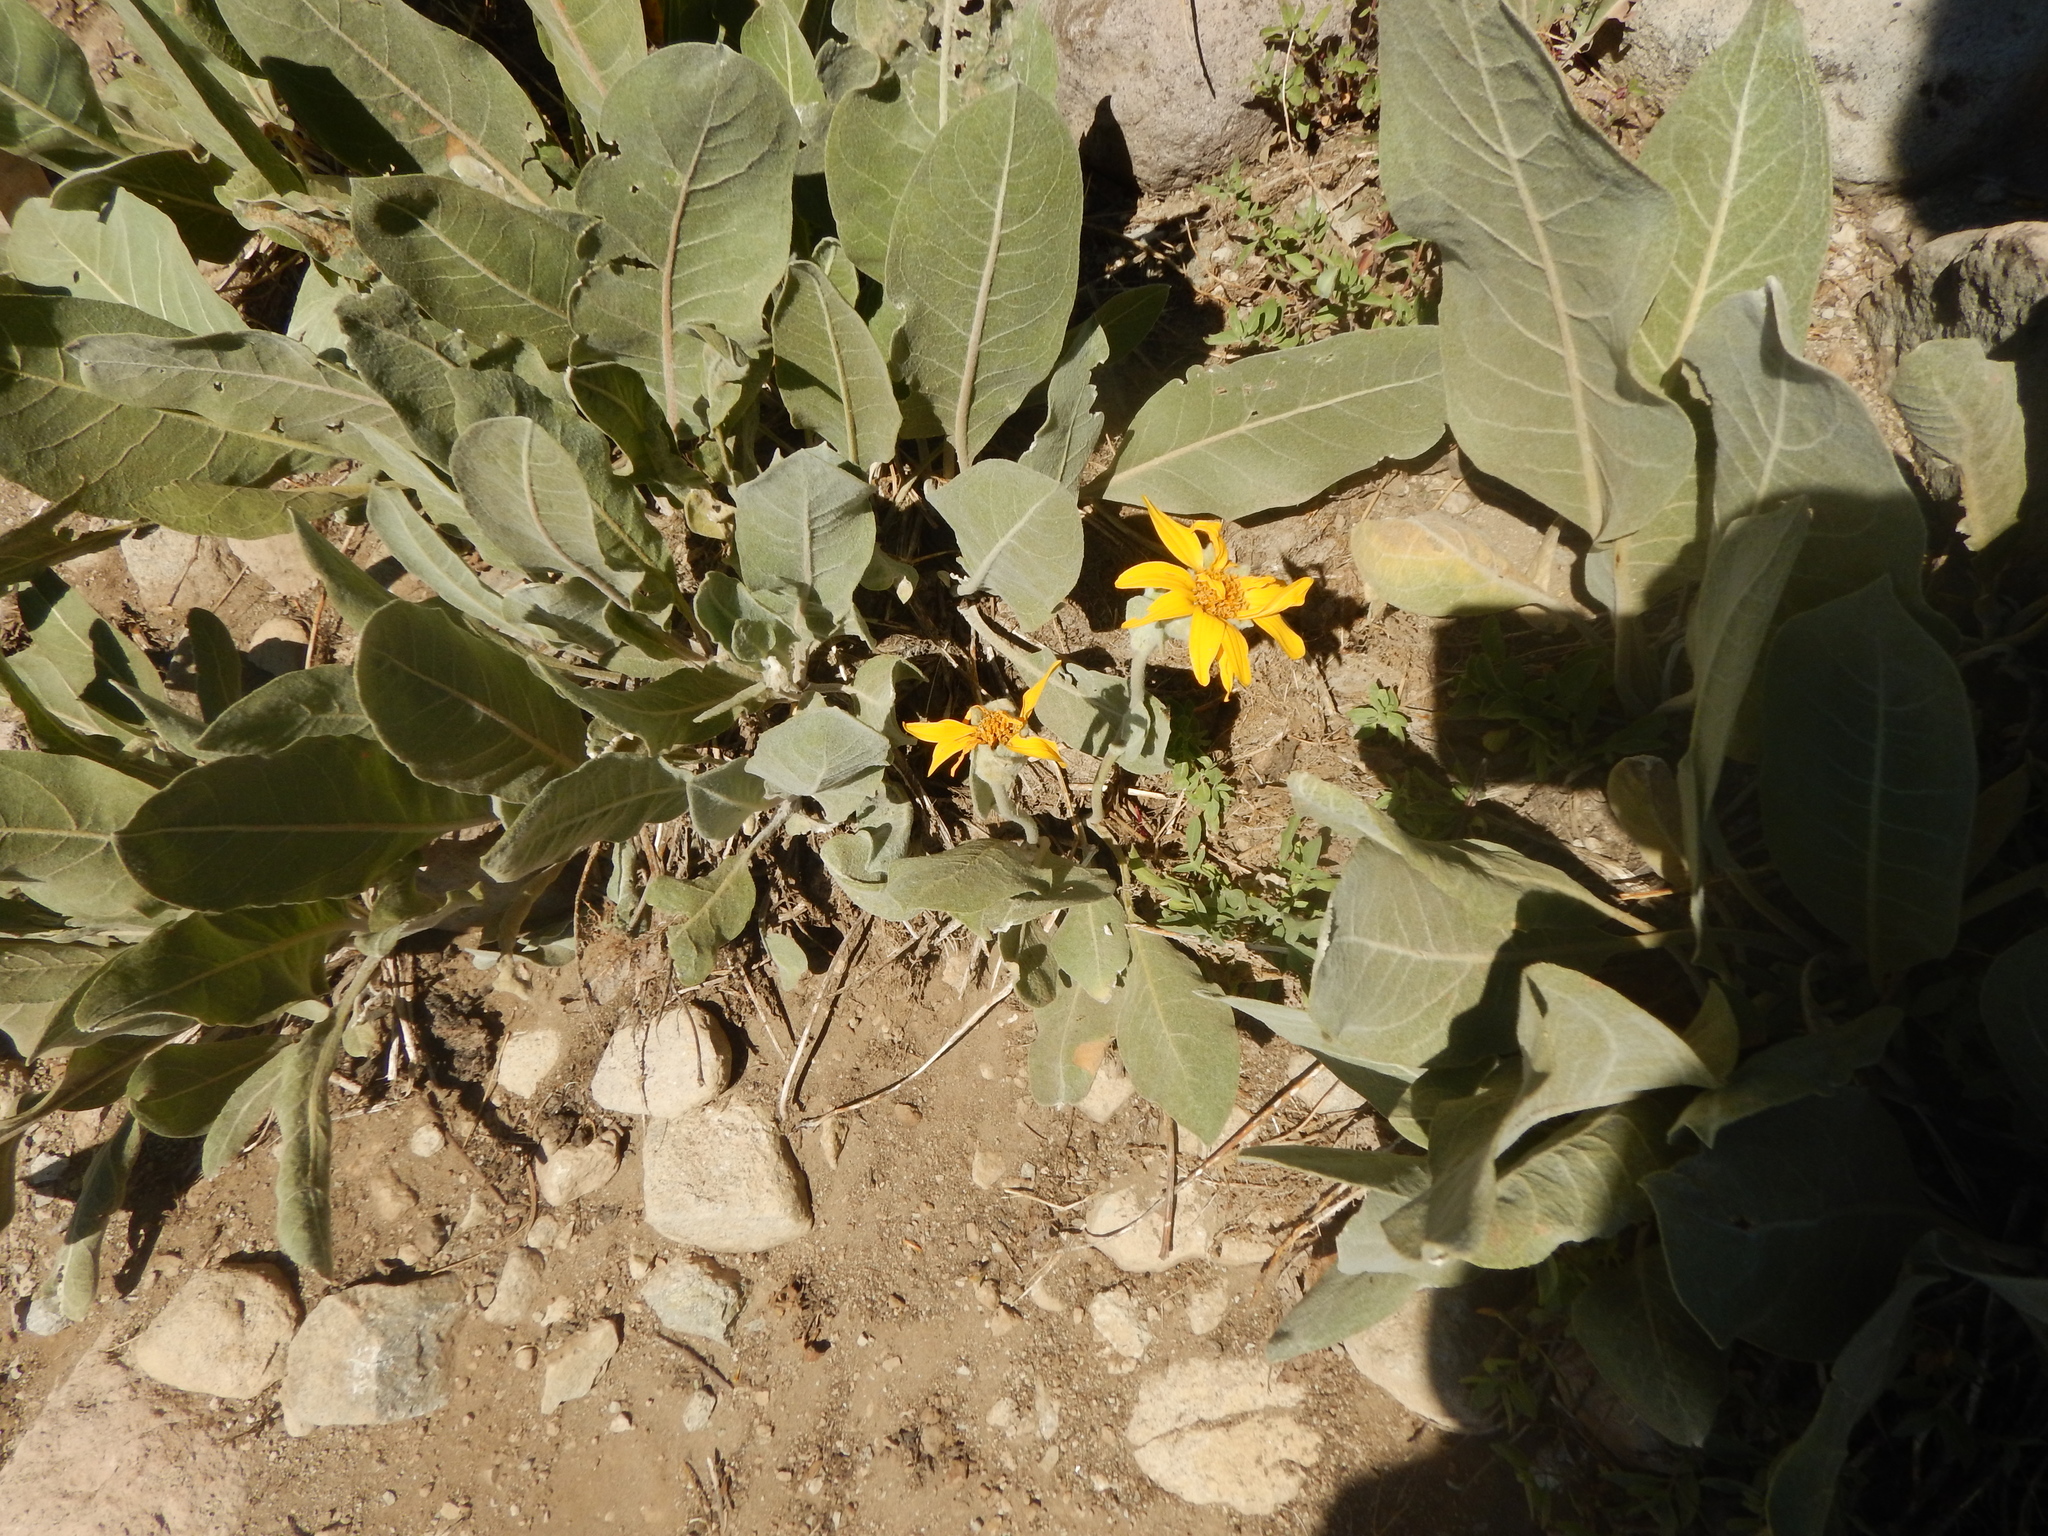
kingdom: Plantae
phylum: Tracheophyta
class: Magnoliopsida
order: Asterales
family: Asteraceae
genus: Wyethia
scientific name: Wyethia mollis
